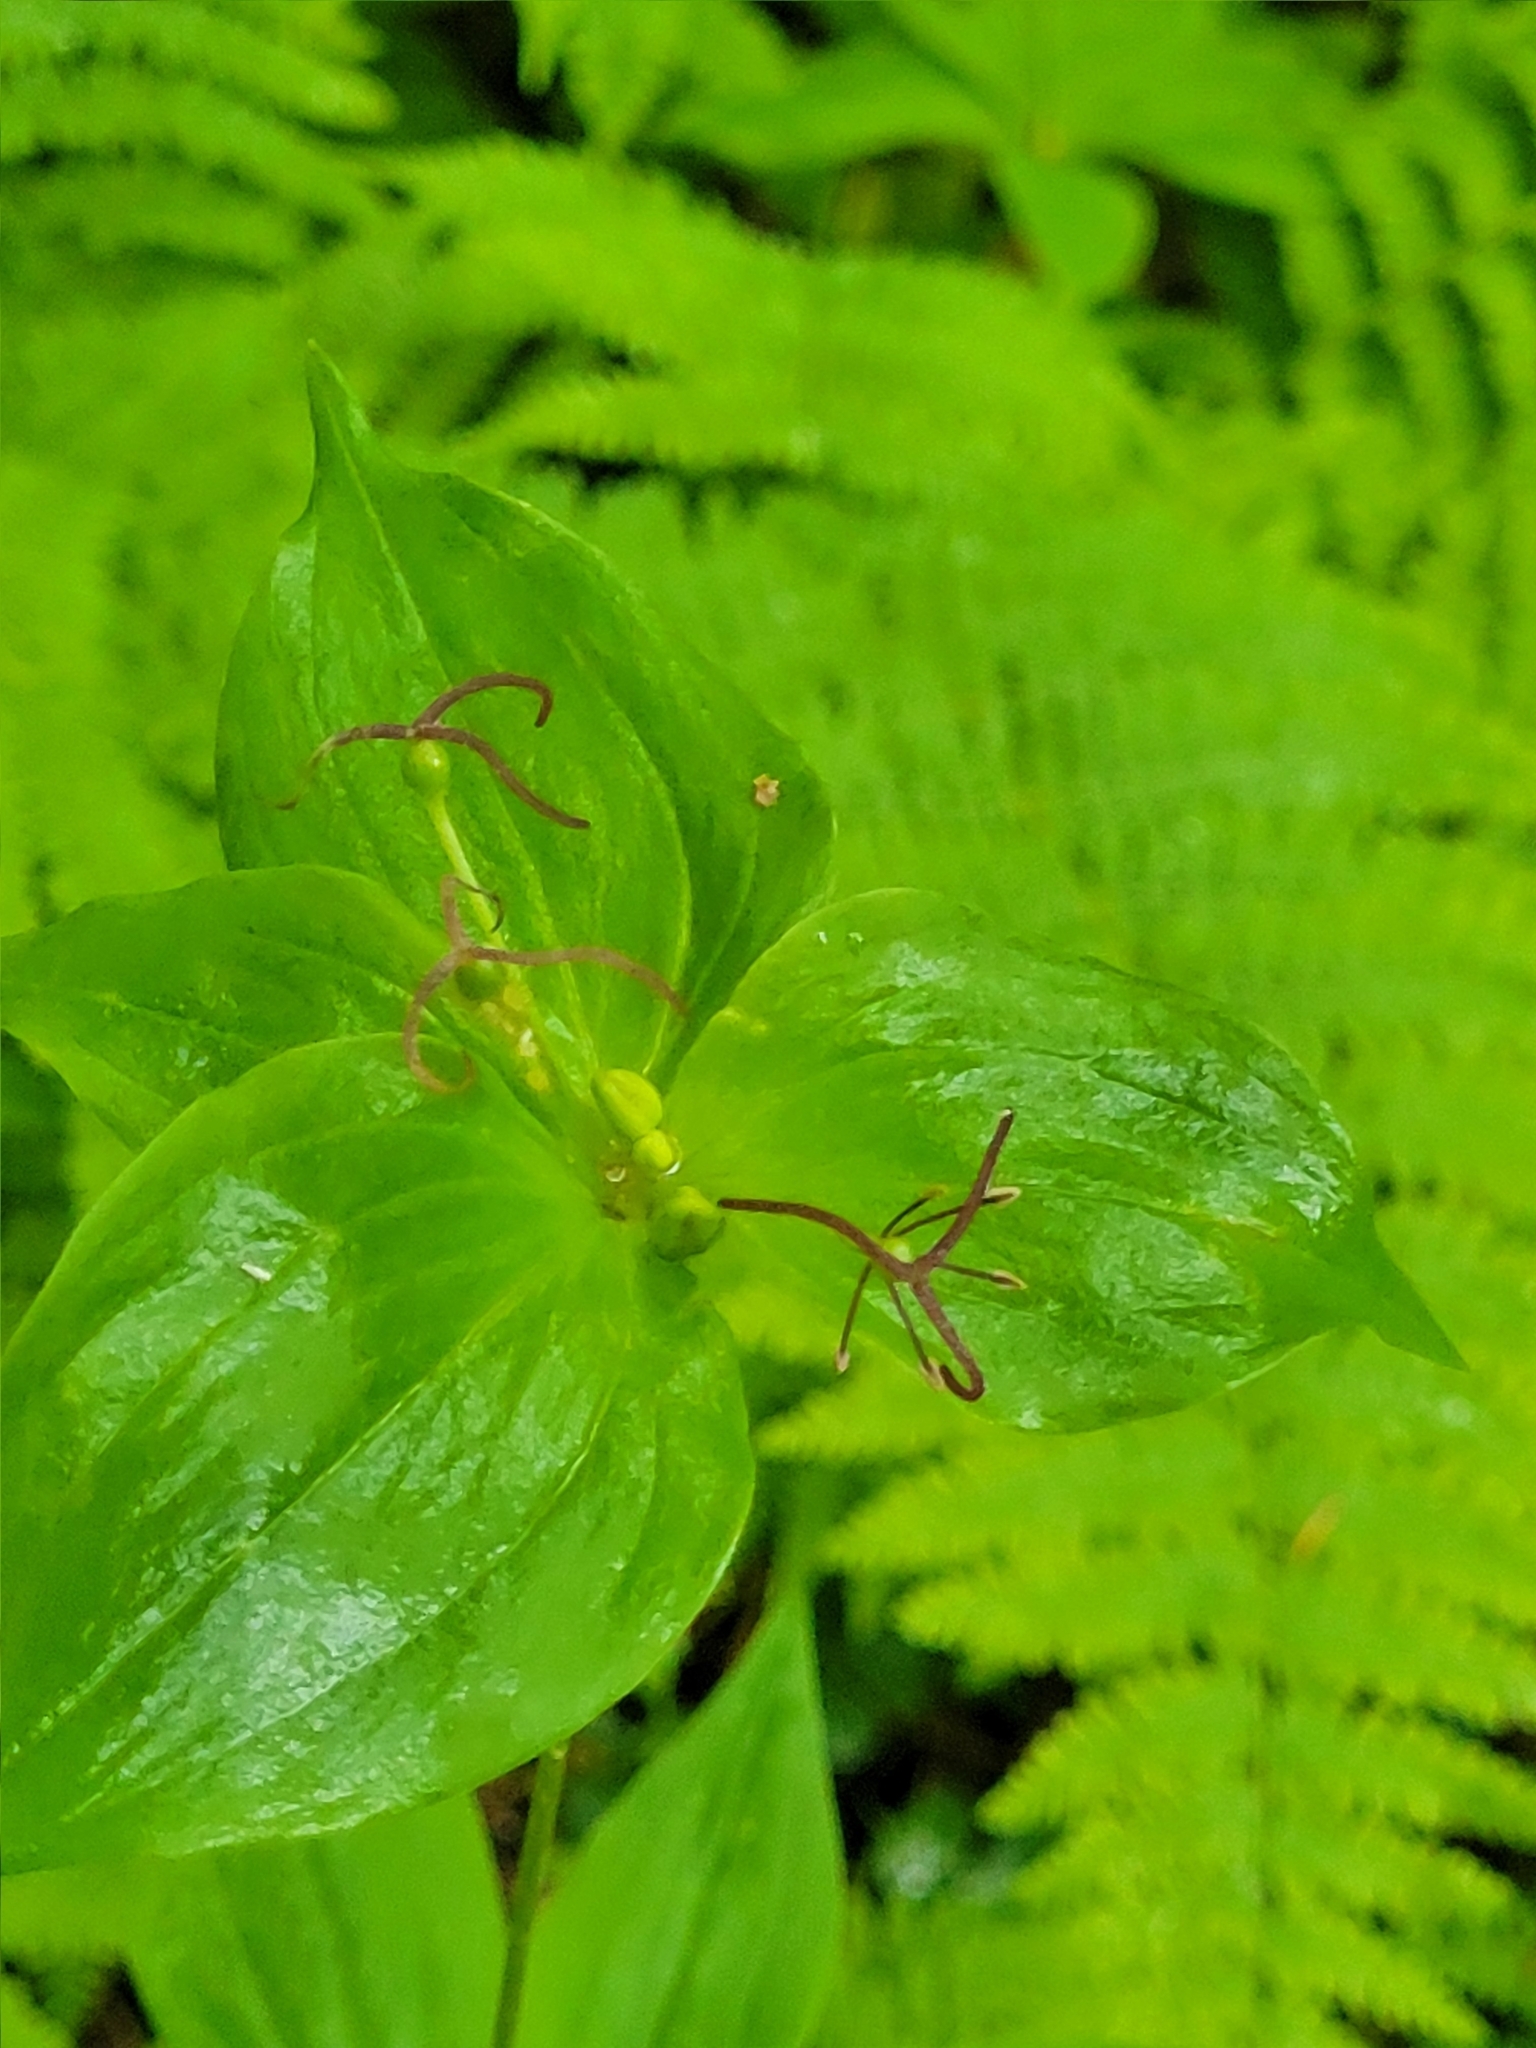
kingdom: Plantae
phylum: Tracheophyta
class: Liliopsida
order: Liliales
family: Liliaceae
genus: Medeola
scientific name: Medeola virginiana
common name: Indian cucumber-root
